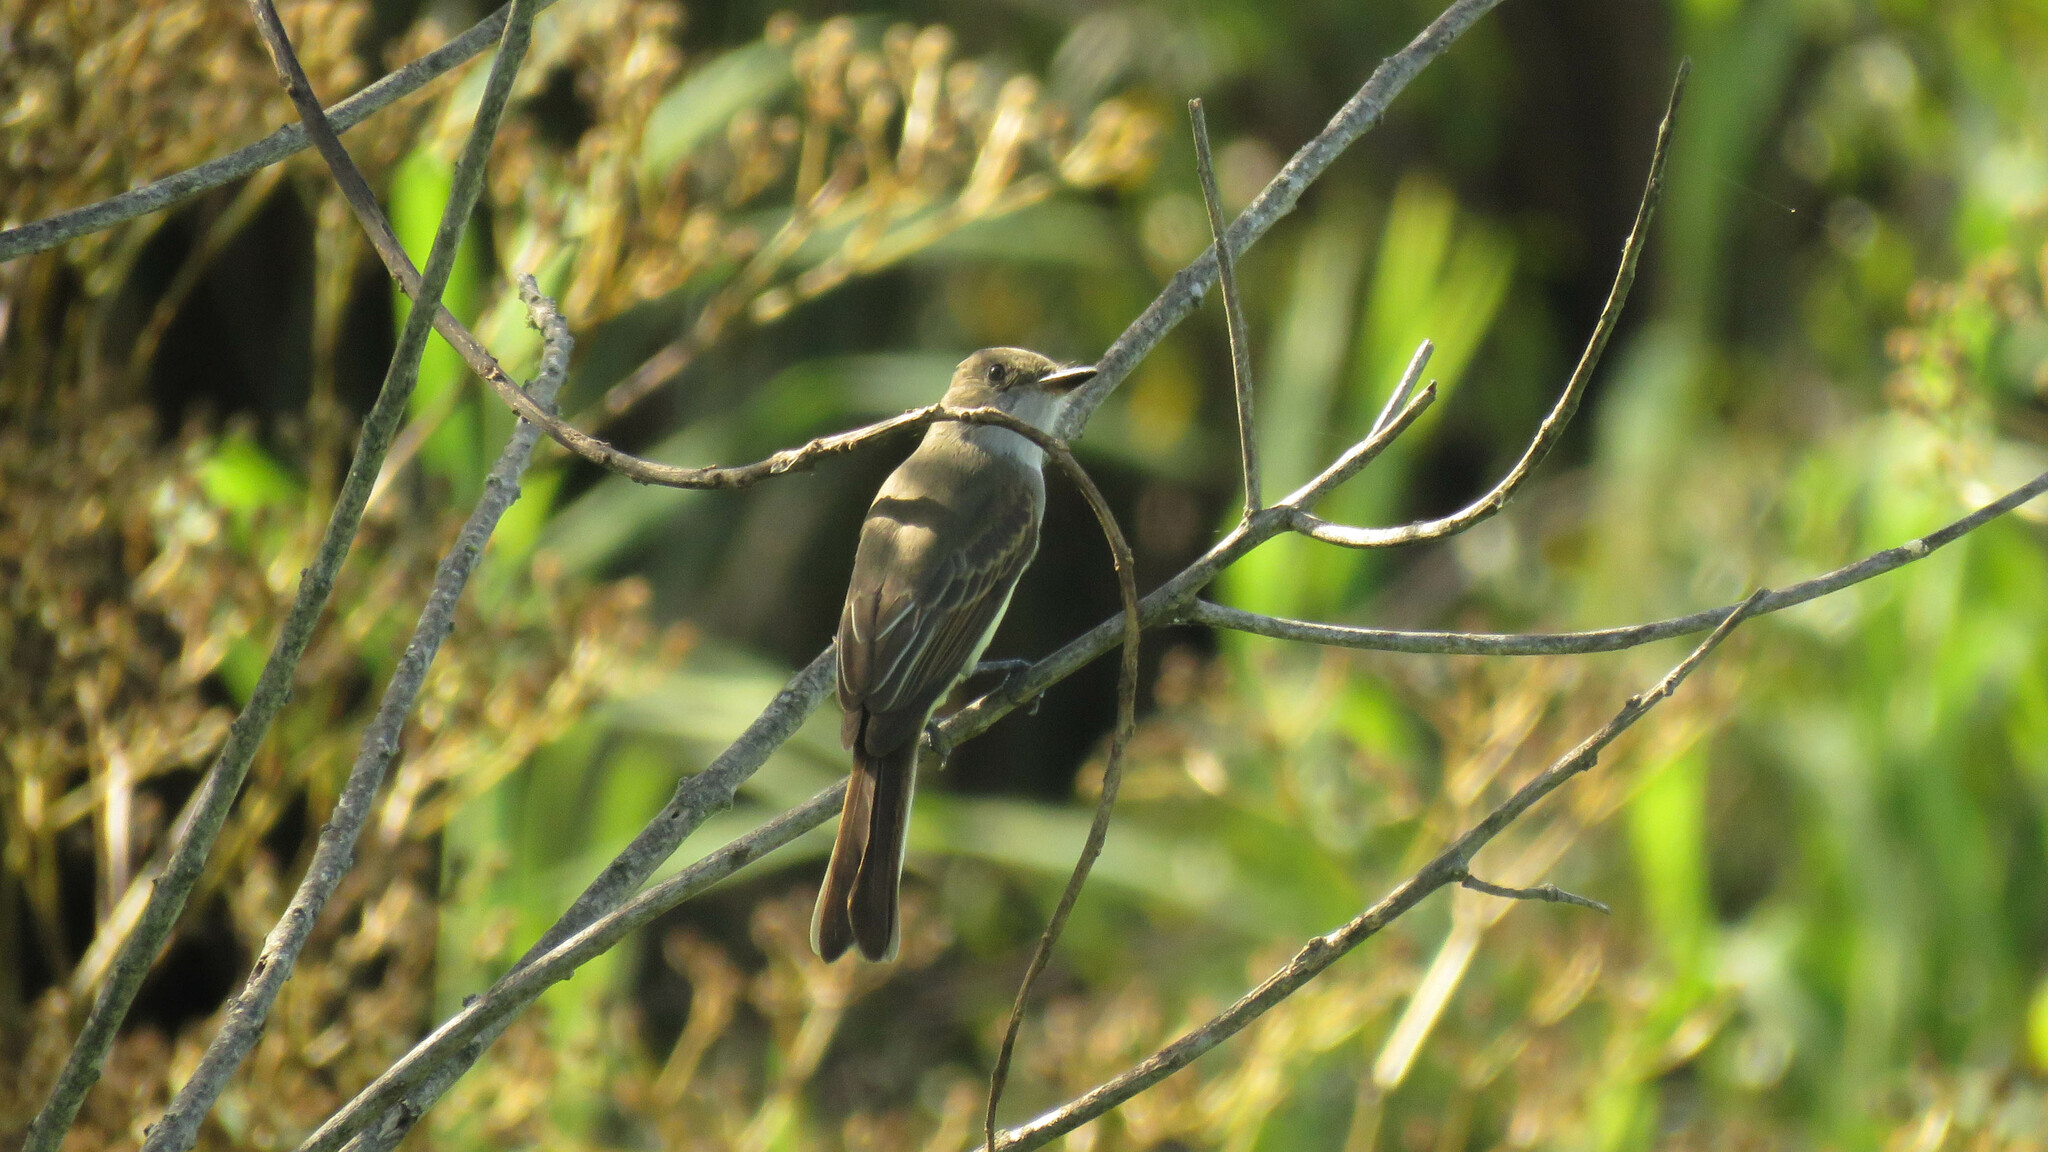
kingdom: Animalia
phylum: Chordata
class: Aves
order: Passeriformes
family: Tyrannidae
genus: Myiarchus
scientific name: Myiarchus swainsoni
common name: Swainson's flycatcher
